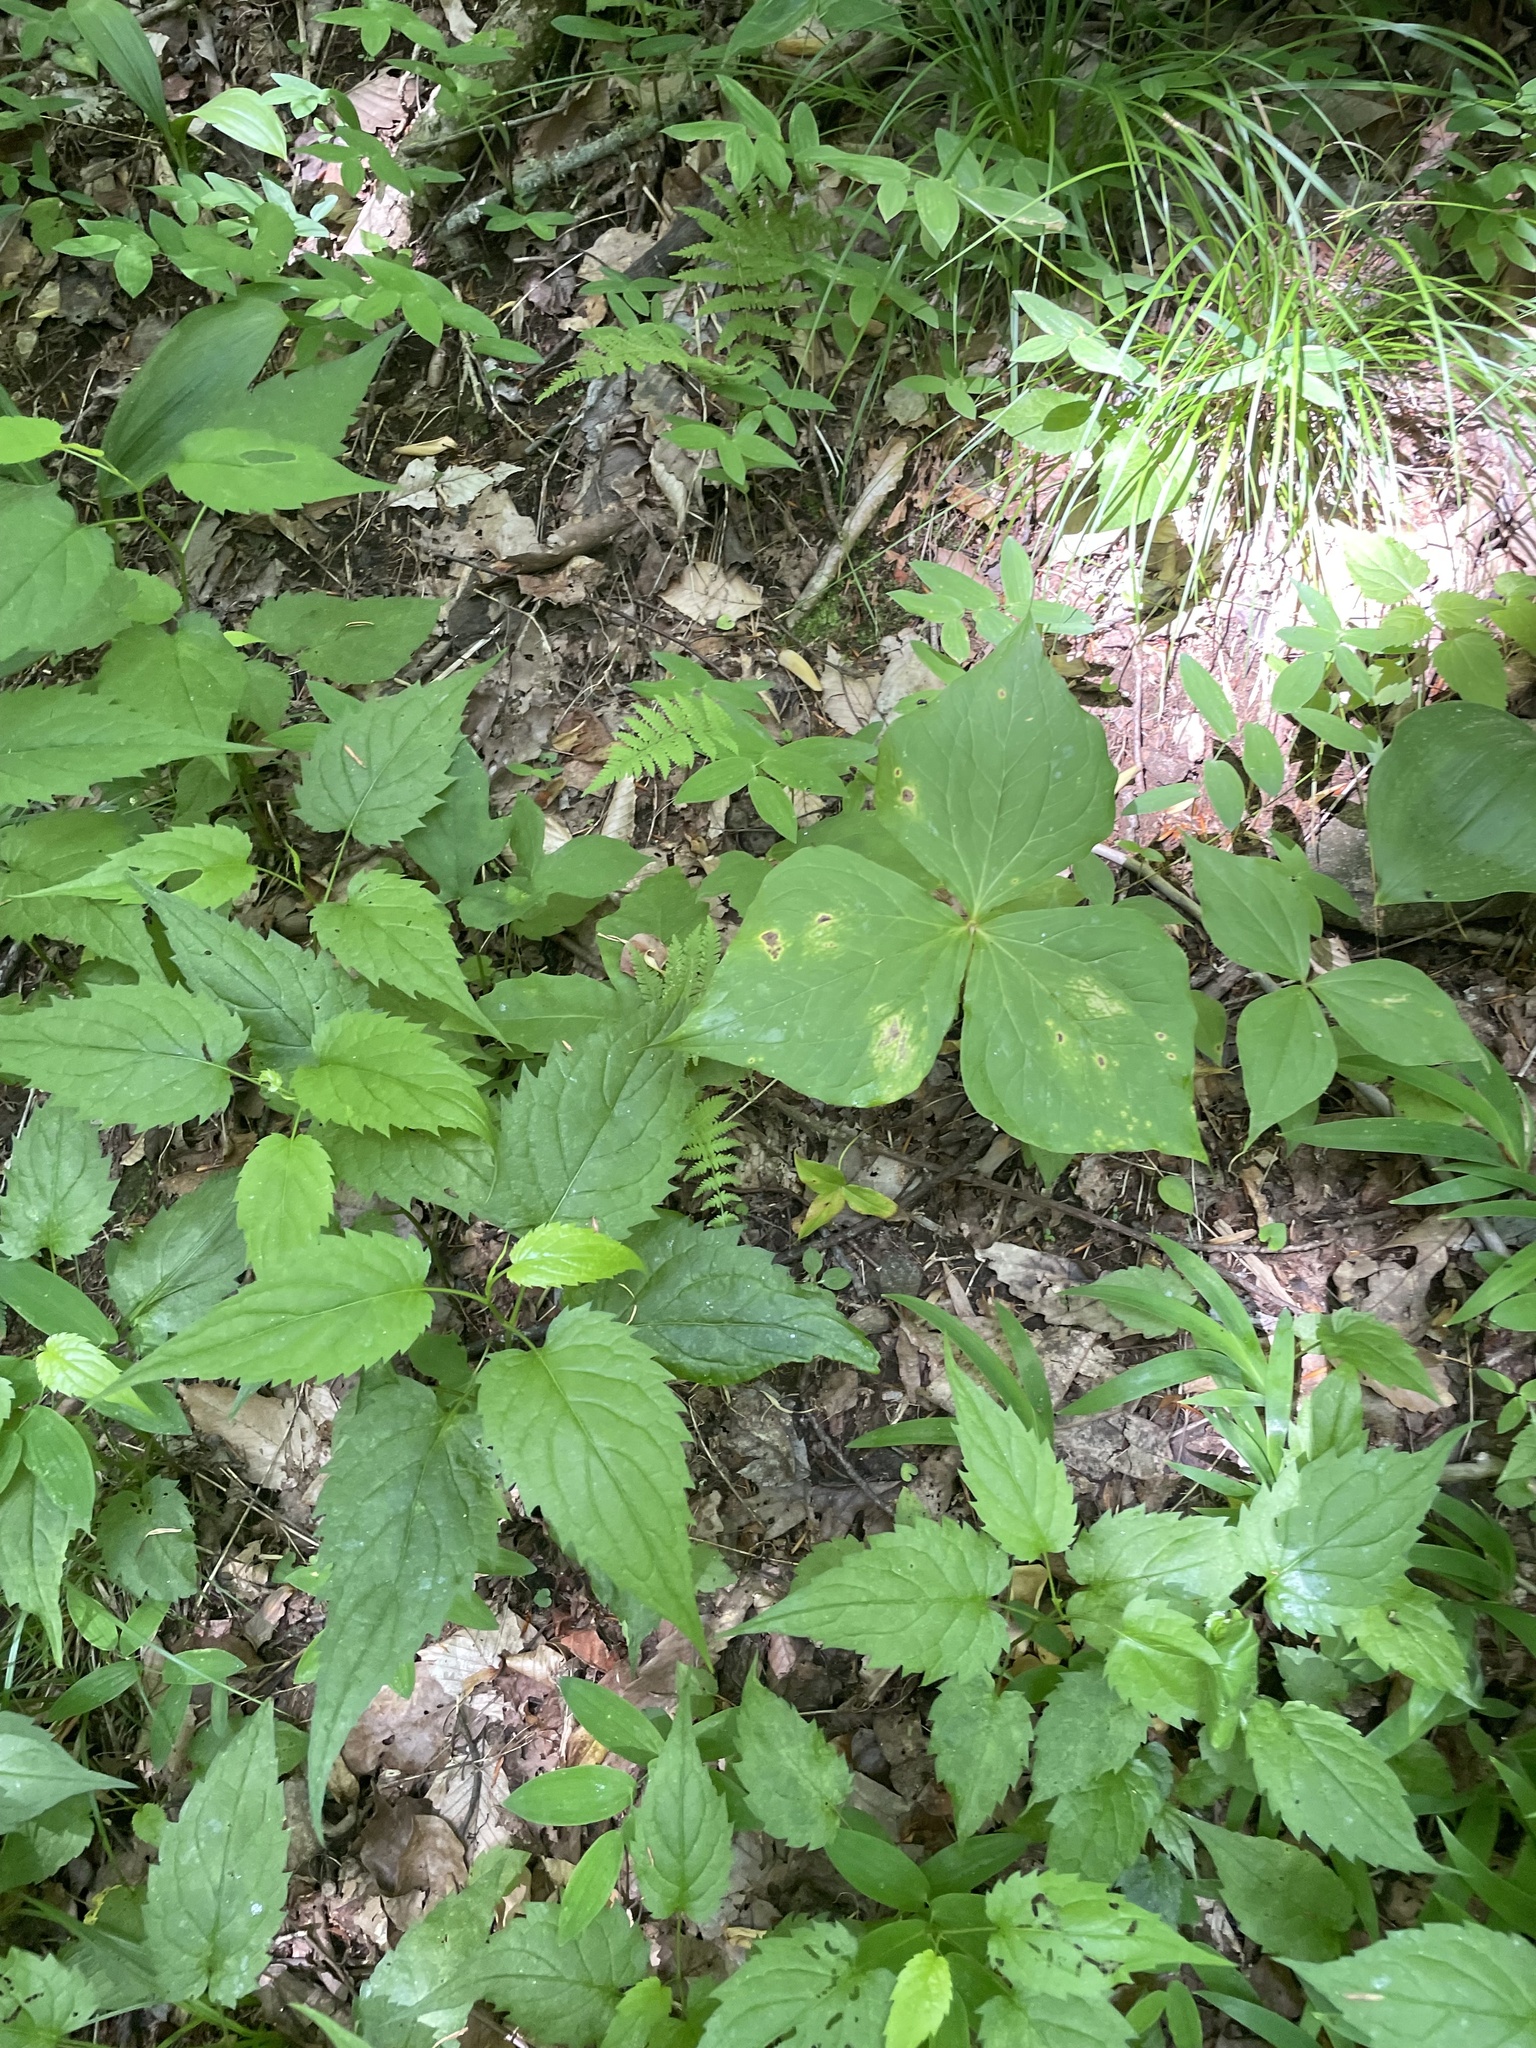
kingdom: Plantae
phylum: Tracheophyta
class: Magnoliopsida
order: Asterales
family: Asteraceae
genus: Eurybia
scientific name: Eurybia divaricata
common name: White wood aster
